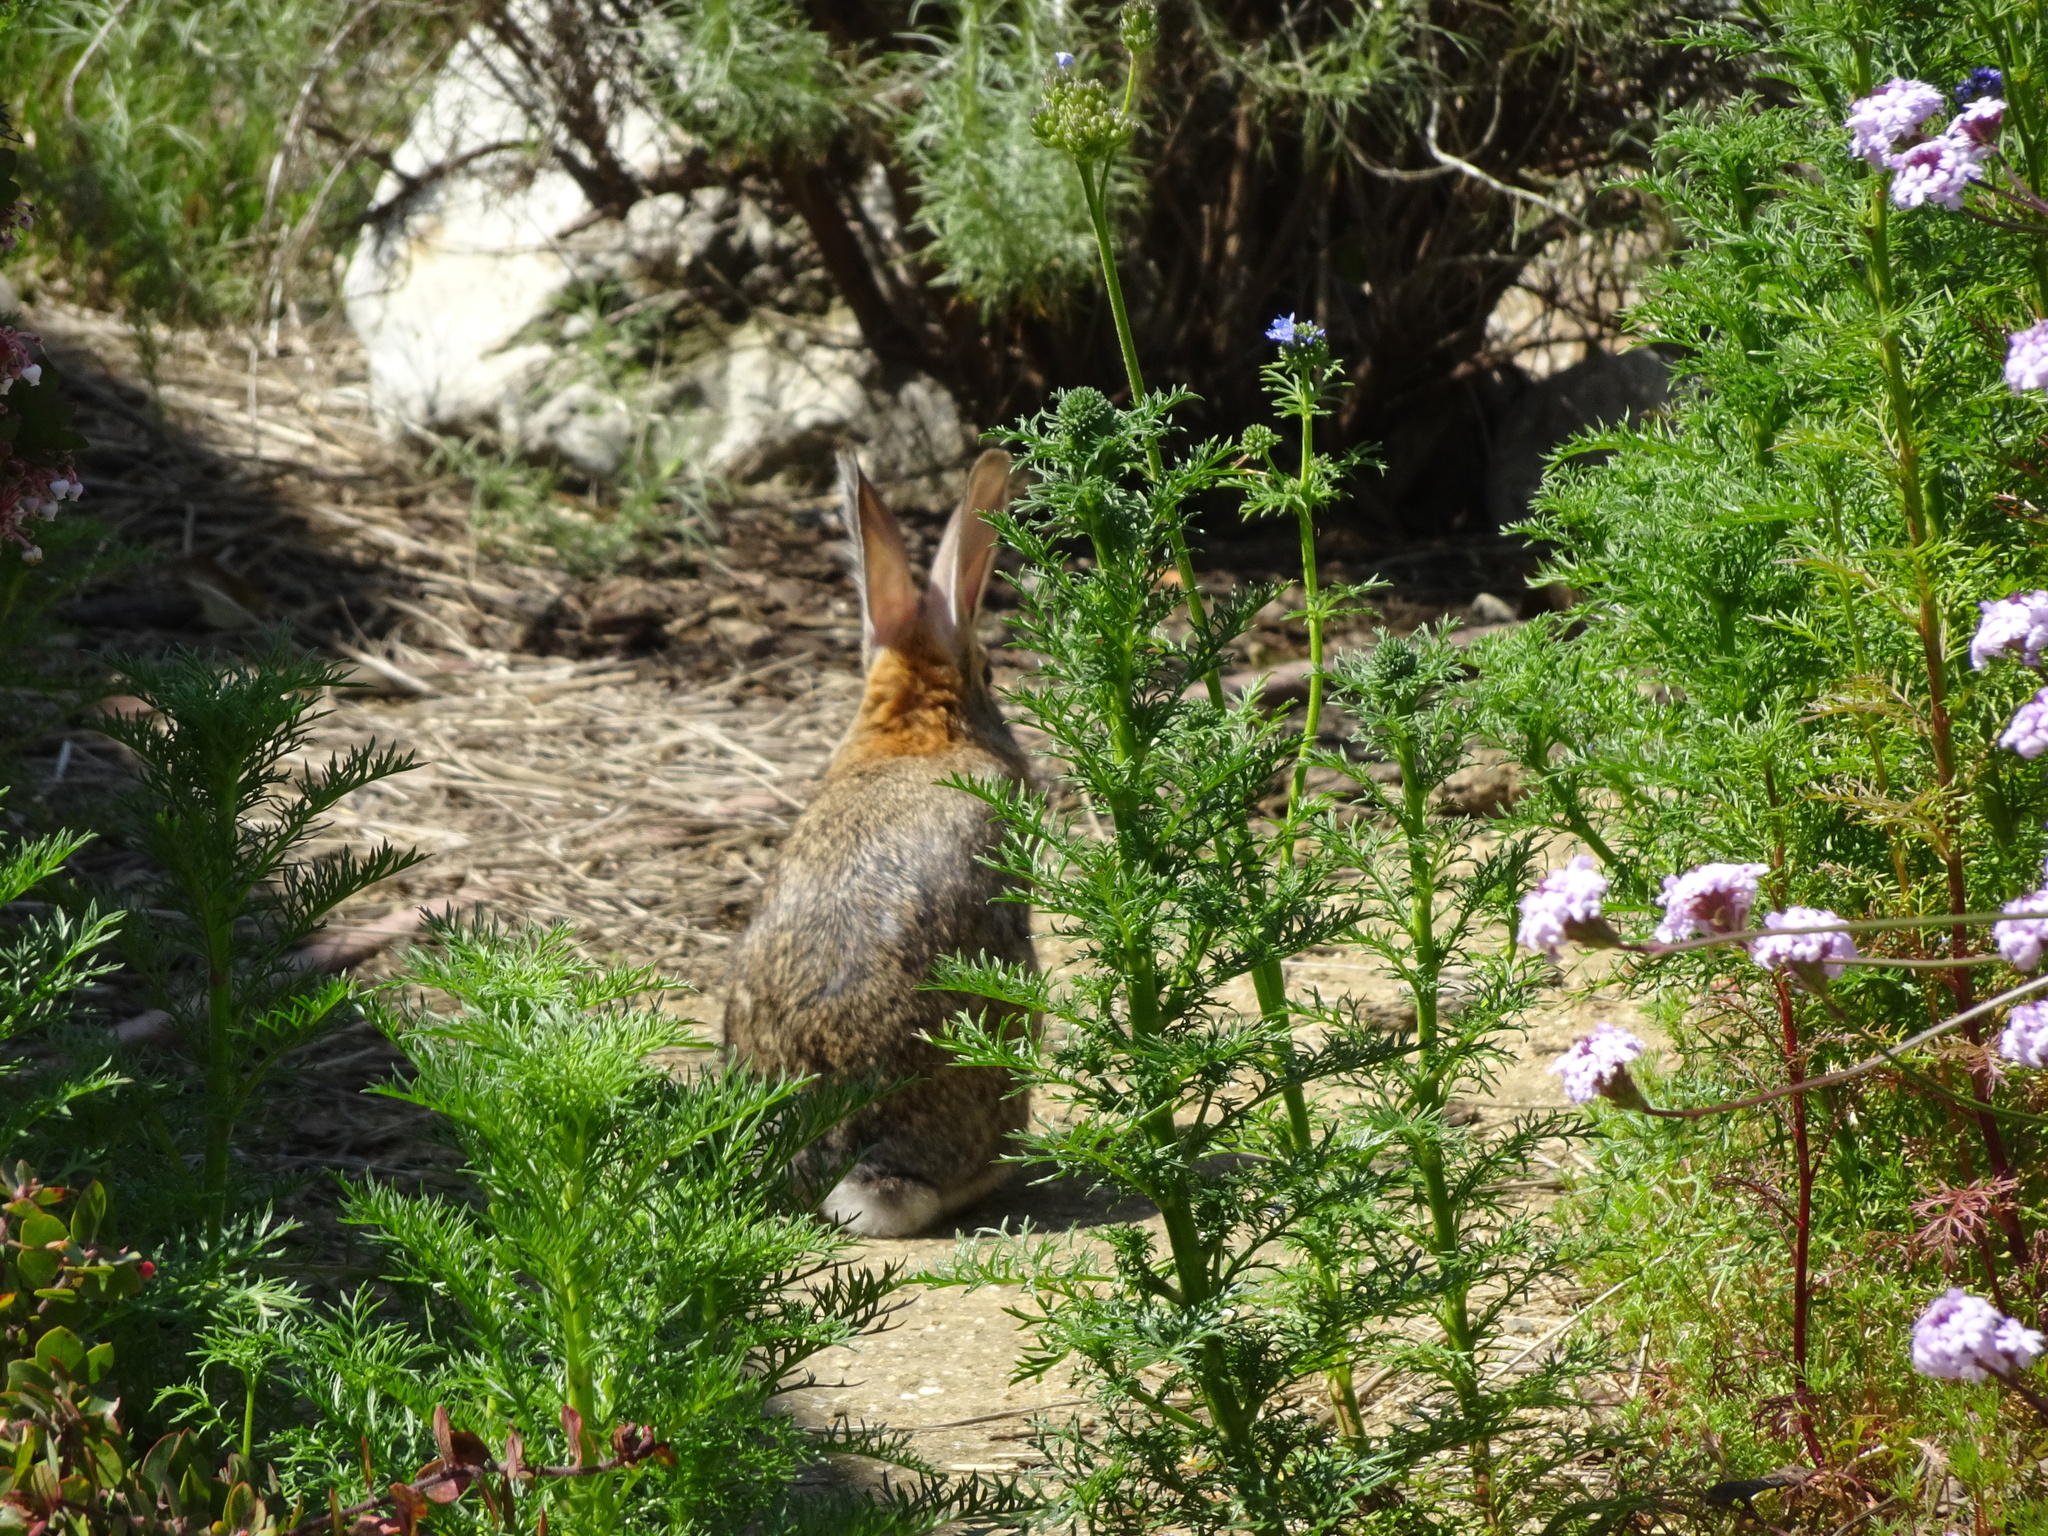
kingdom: Animalia
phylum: Chordata
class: Mammalia
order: Lagomorpha
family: Leporidae
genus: Sylvilagus
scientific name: Sylvilagus audubonii
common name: Desert cottontail
